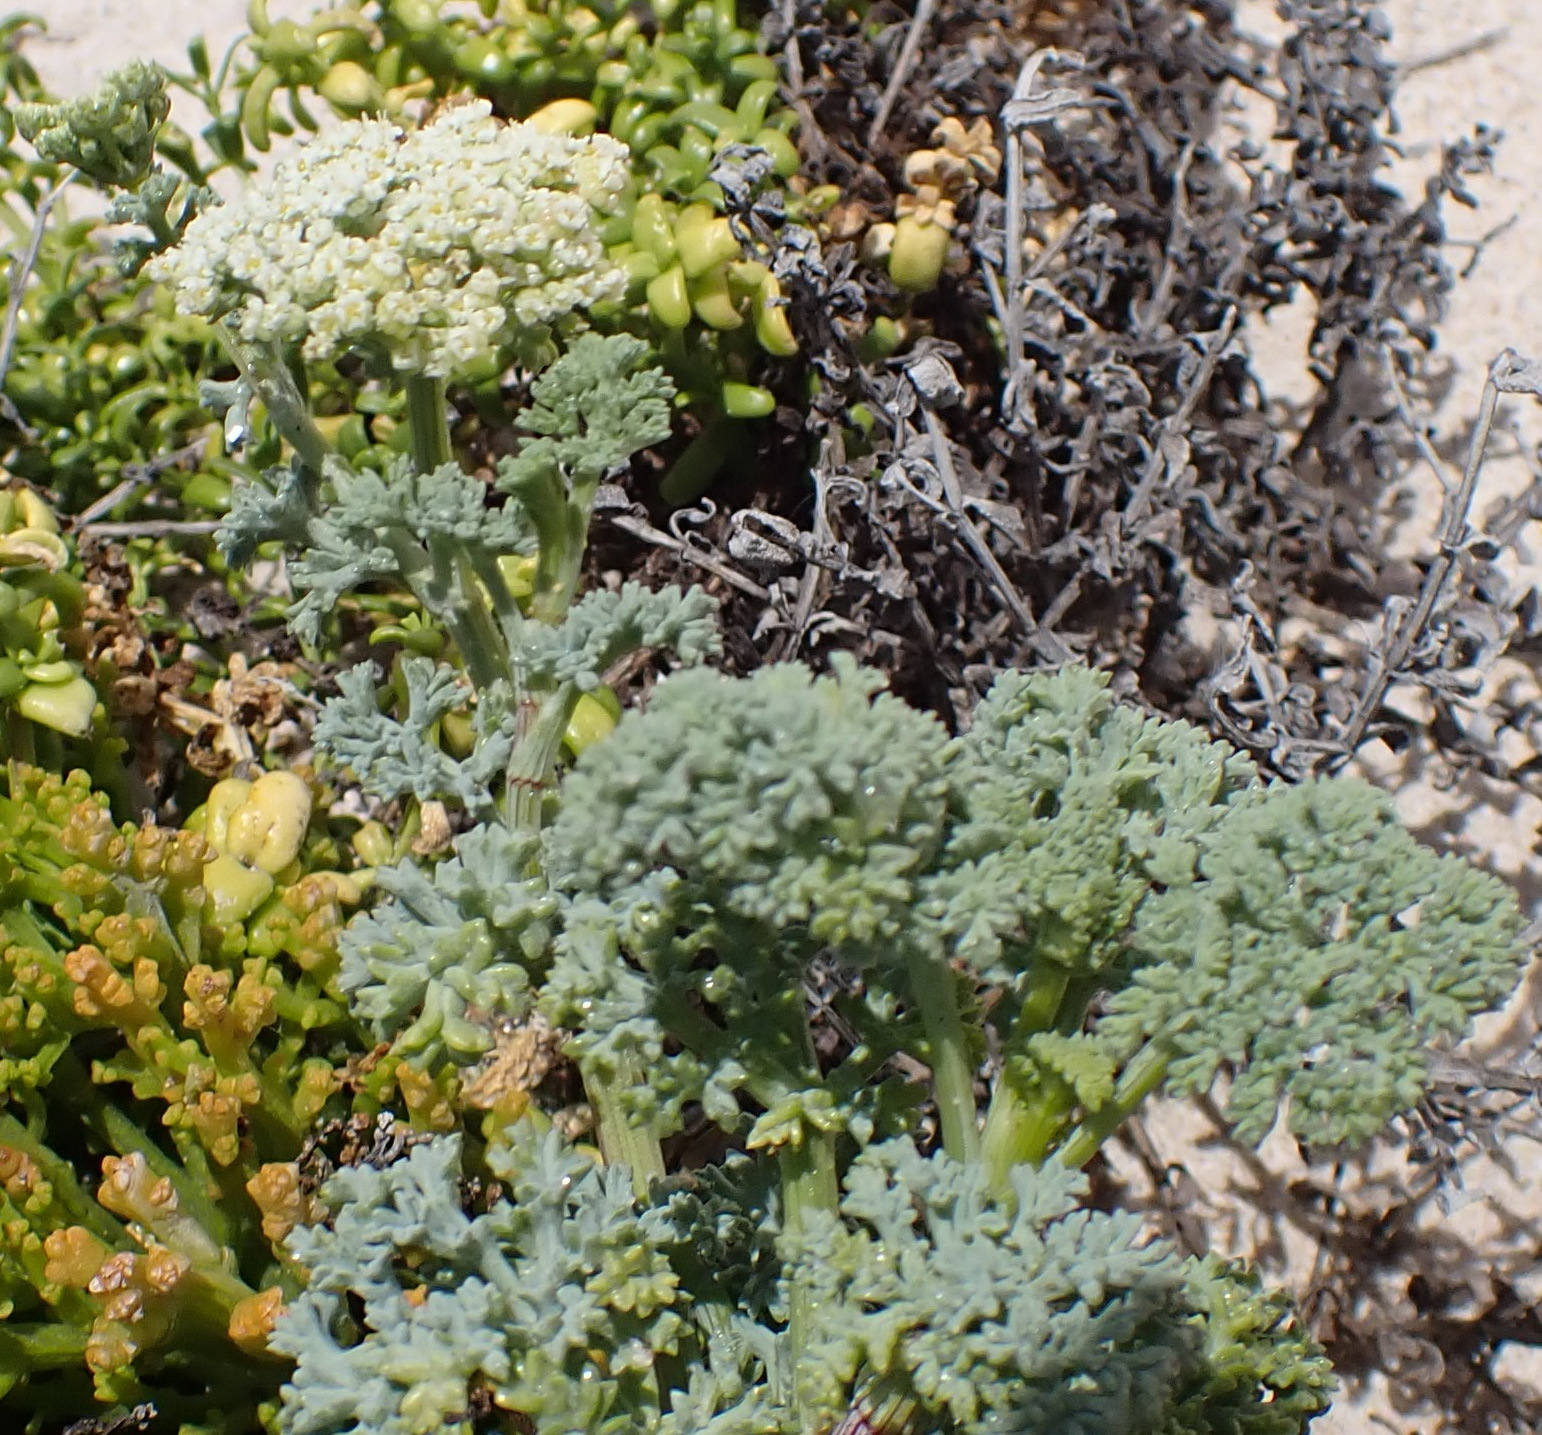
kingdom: Plantae
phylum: Tracheophyta
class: Magnoliopsida
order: Apiales
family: Apiaceae
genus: Dasispermum
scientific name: Dasispermum suffruticosum
